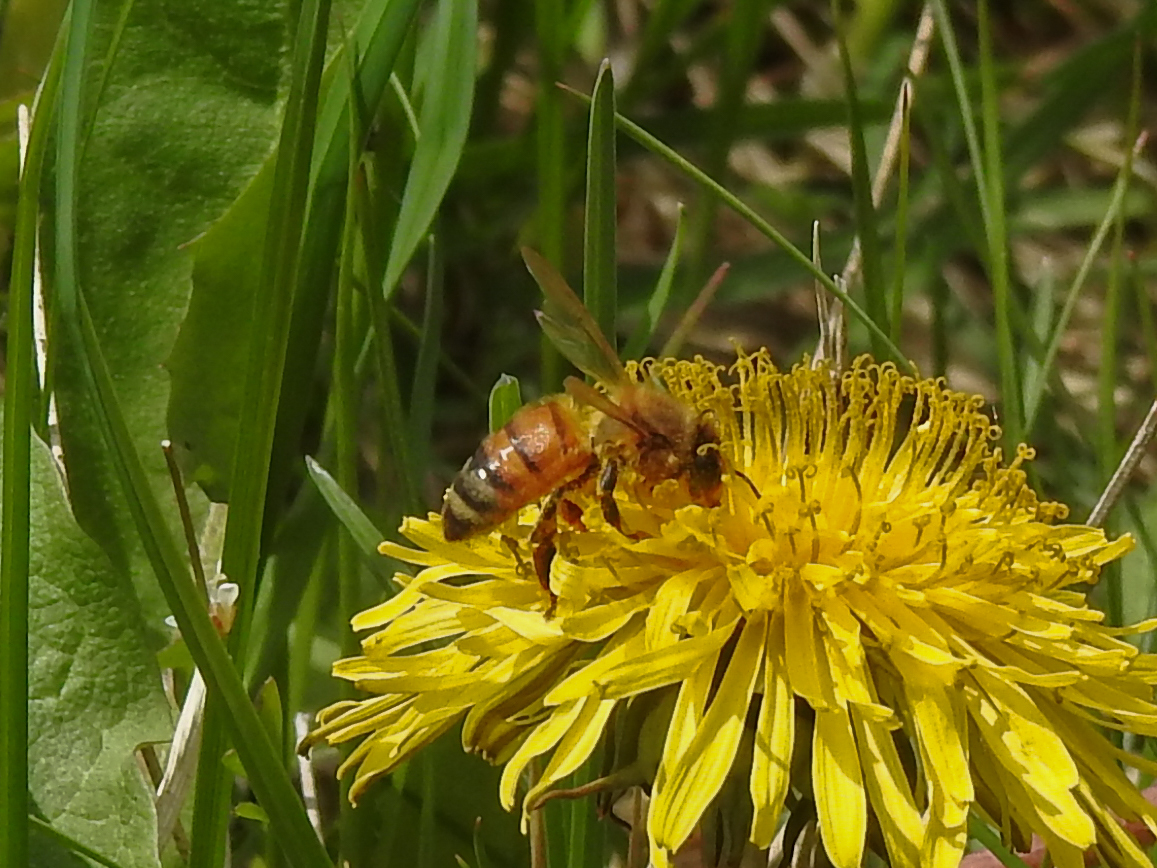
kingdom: Animalia
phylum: Arthropoda
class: Insecta
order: Hymenoptera
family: Apidae
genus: Apis
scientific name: Apis mellifera
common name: Honey bee
